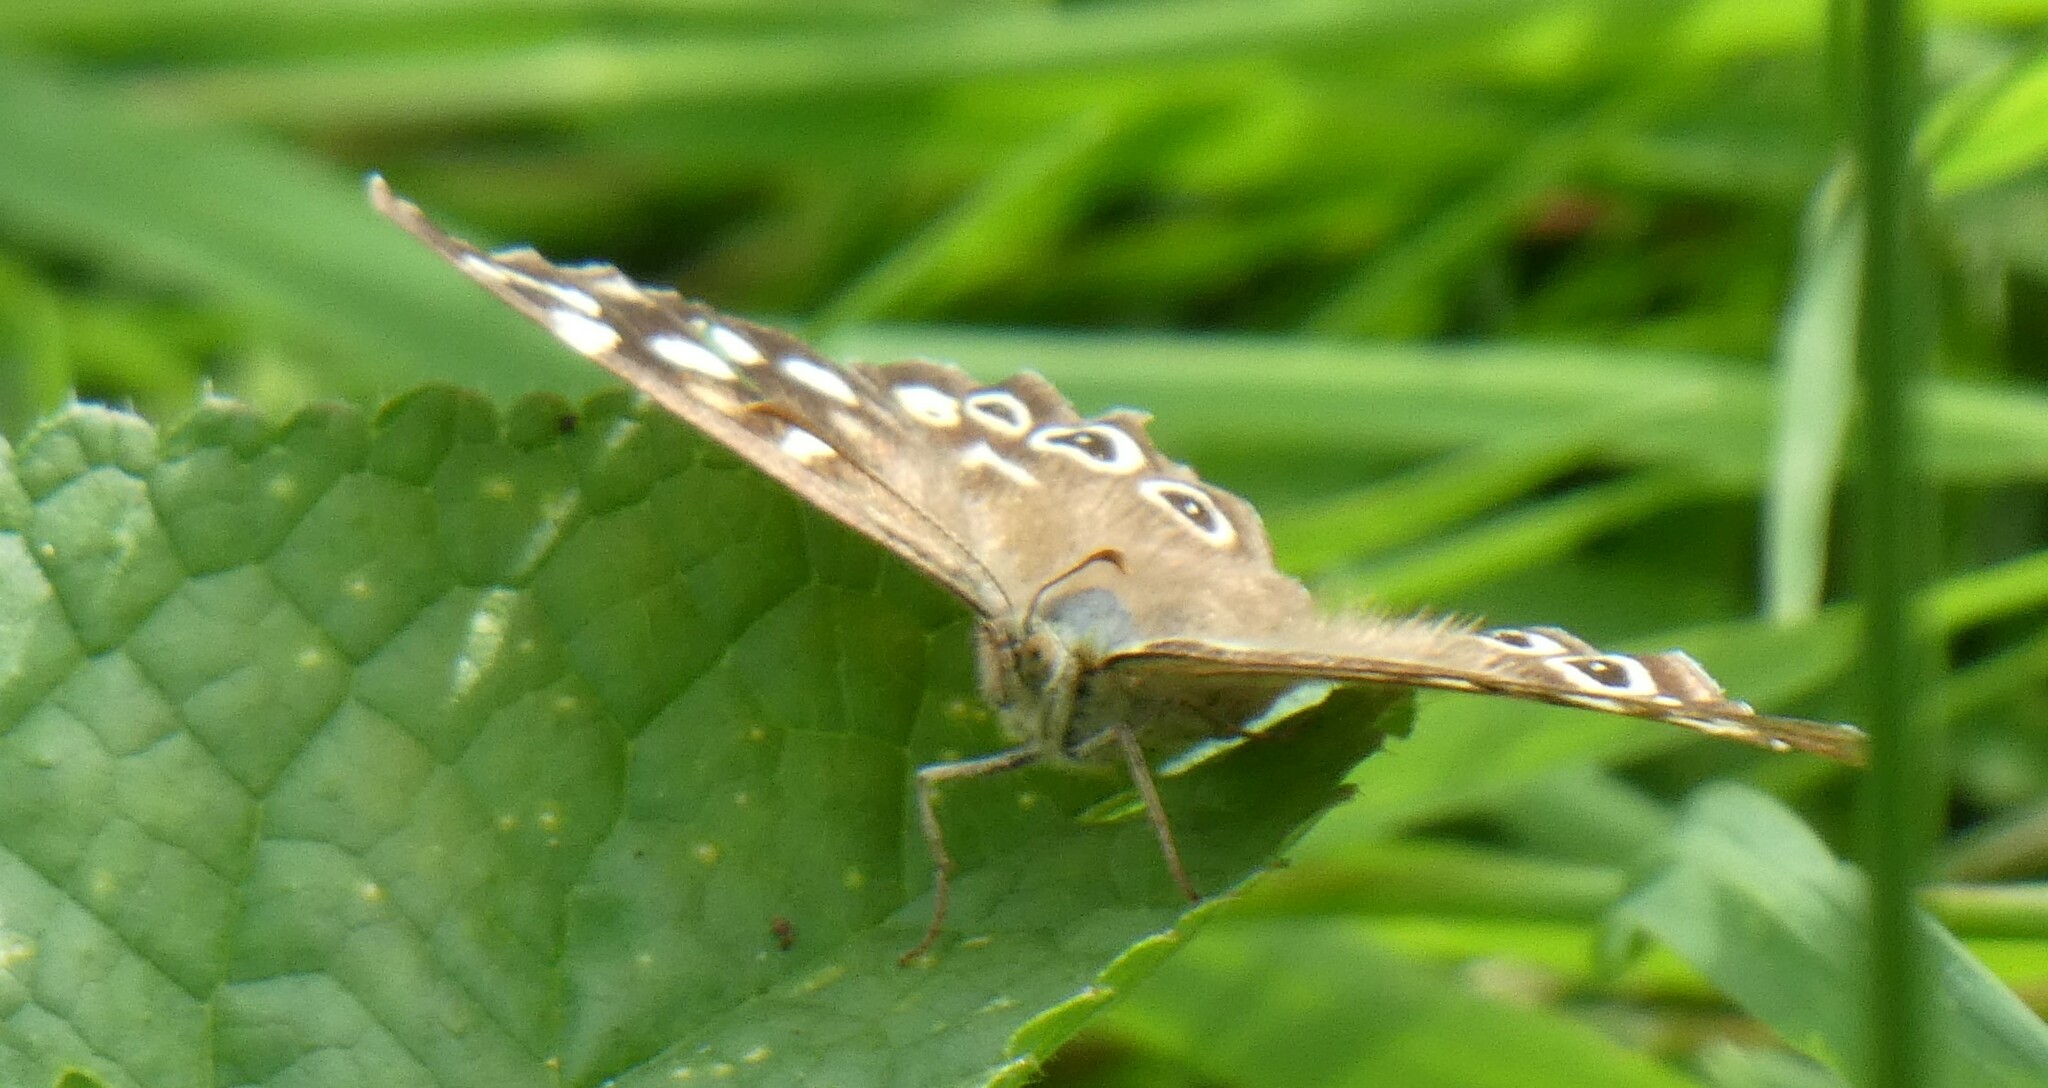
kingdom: Animalia
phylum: Arthropoda
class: Insecta
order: Lepidoptera
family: Nymphalidae
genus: Pararge
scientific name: Pararge aegeria
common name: Speckled wood
